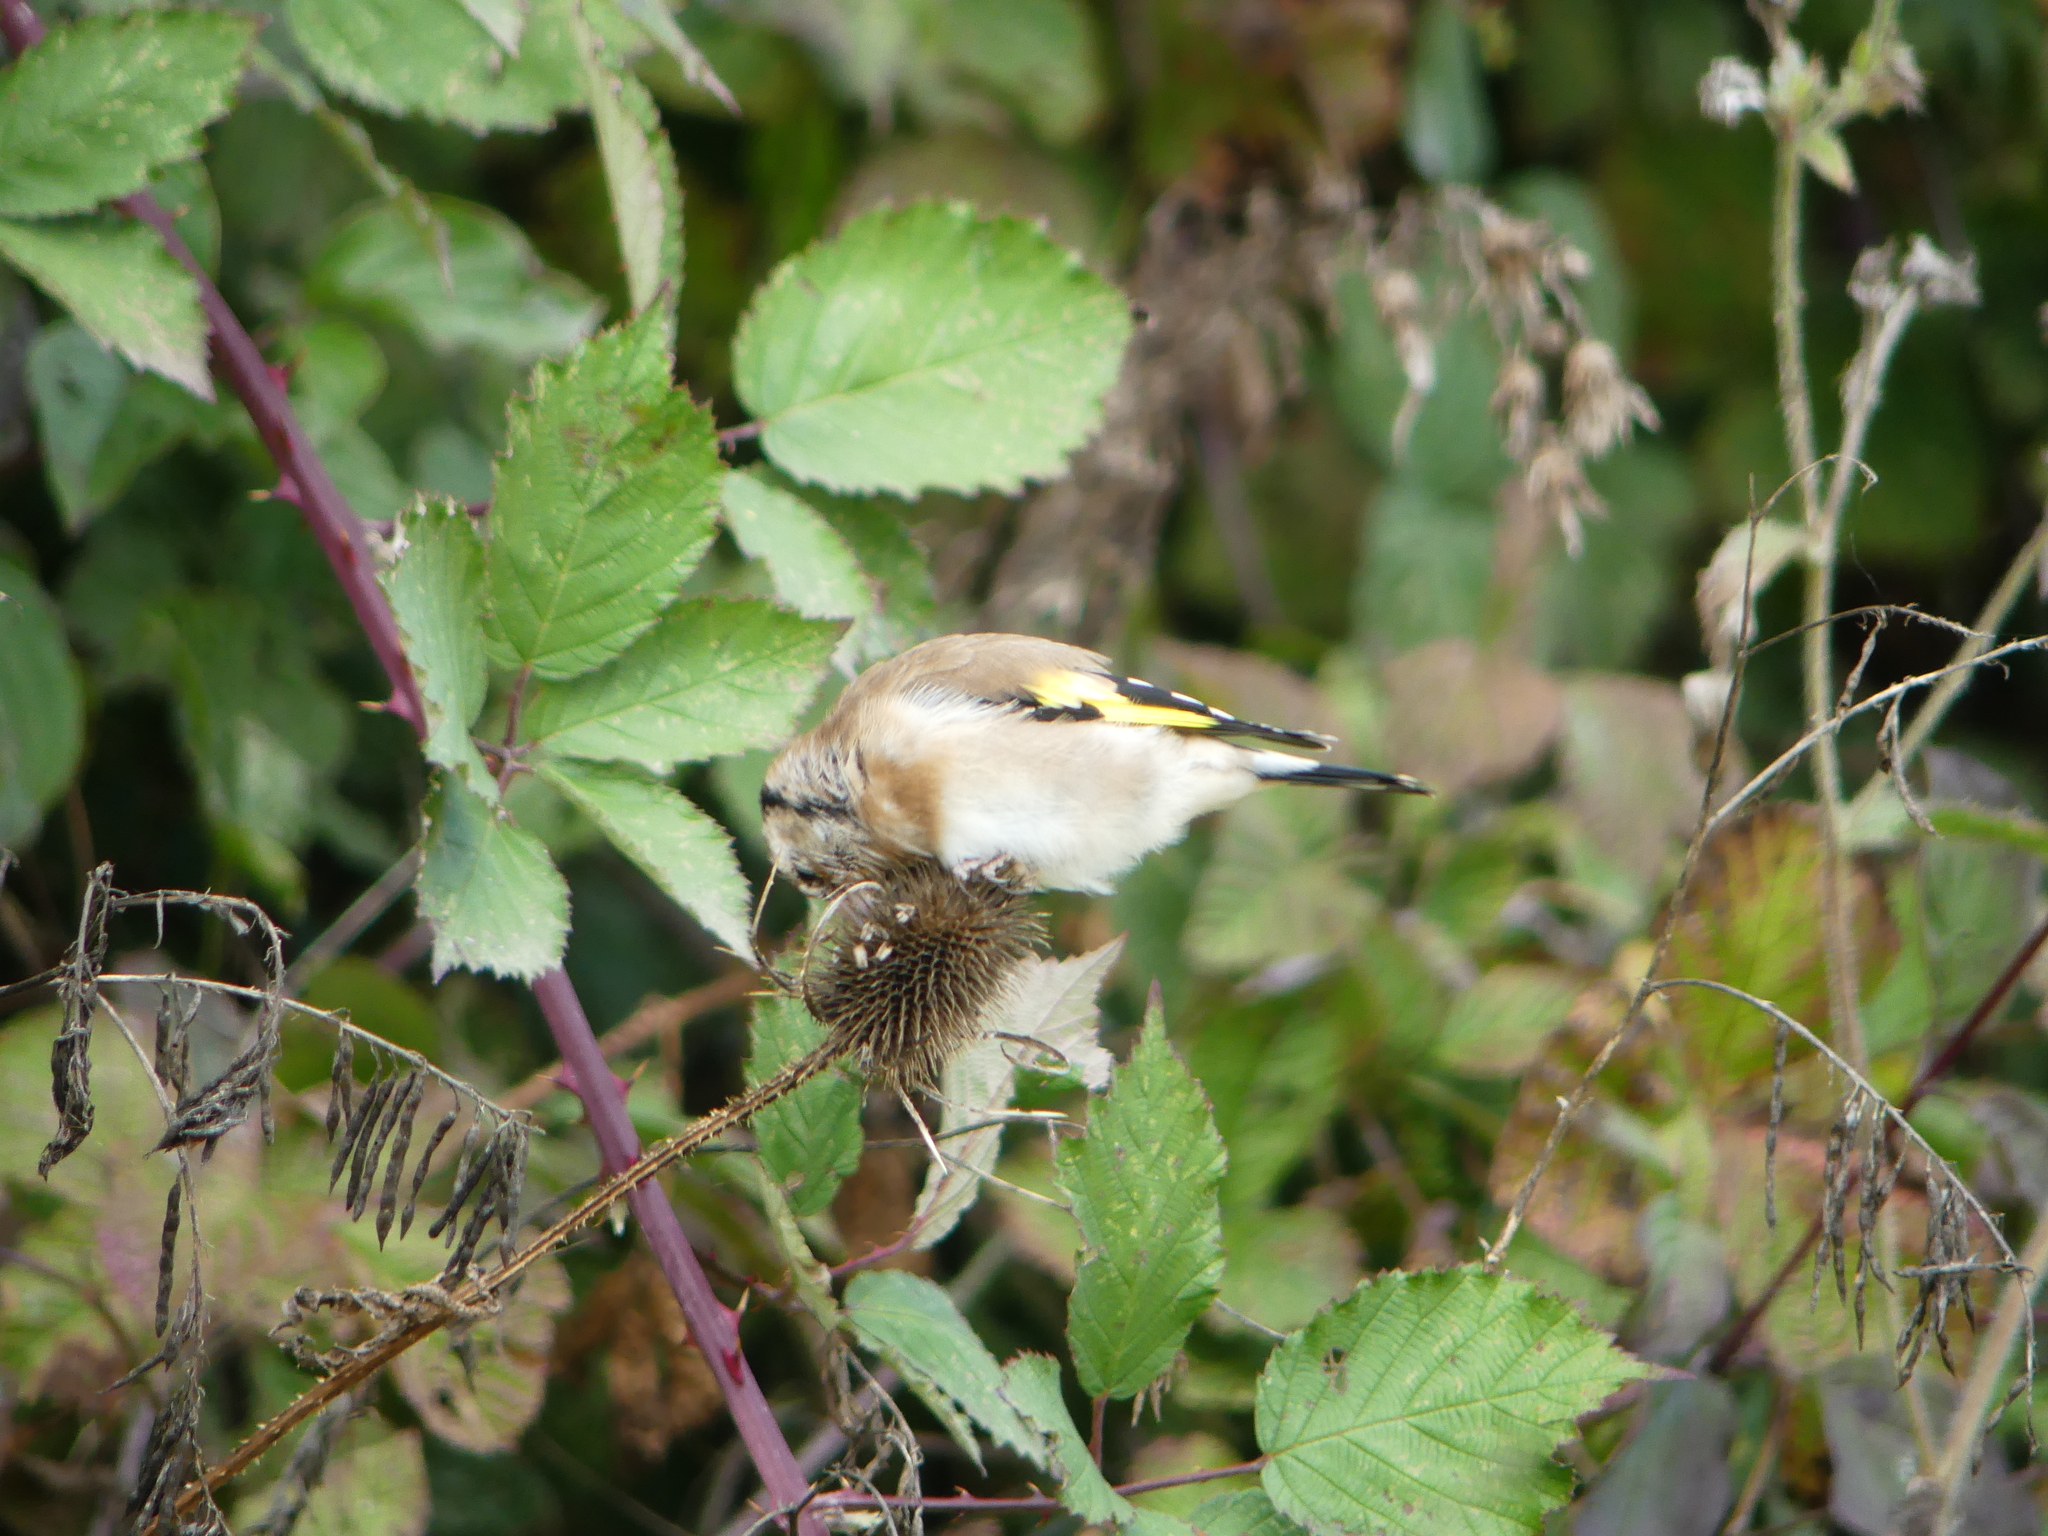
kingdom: Animalia
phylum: Chordata
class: Aves
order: Passeriformes
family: Fringillidae
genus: Carduelis
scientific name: Carduelis carduelis
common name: European goldfinch
